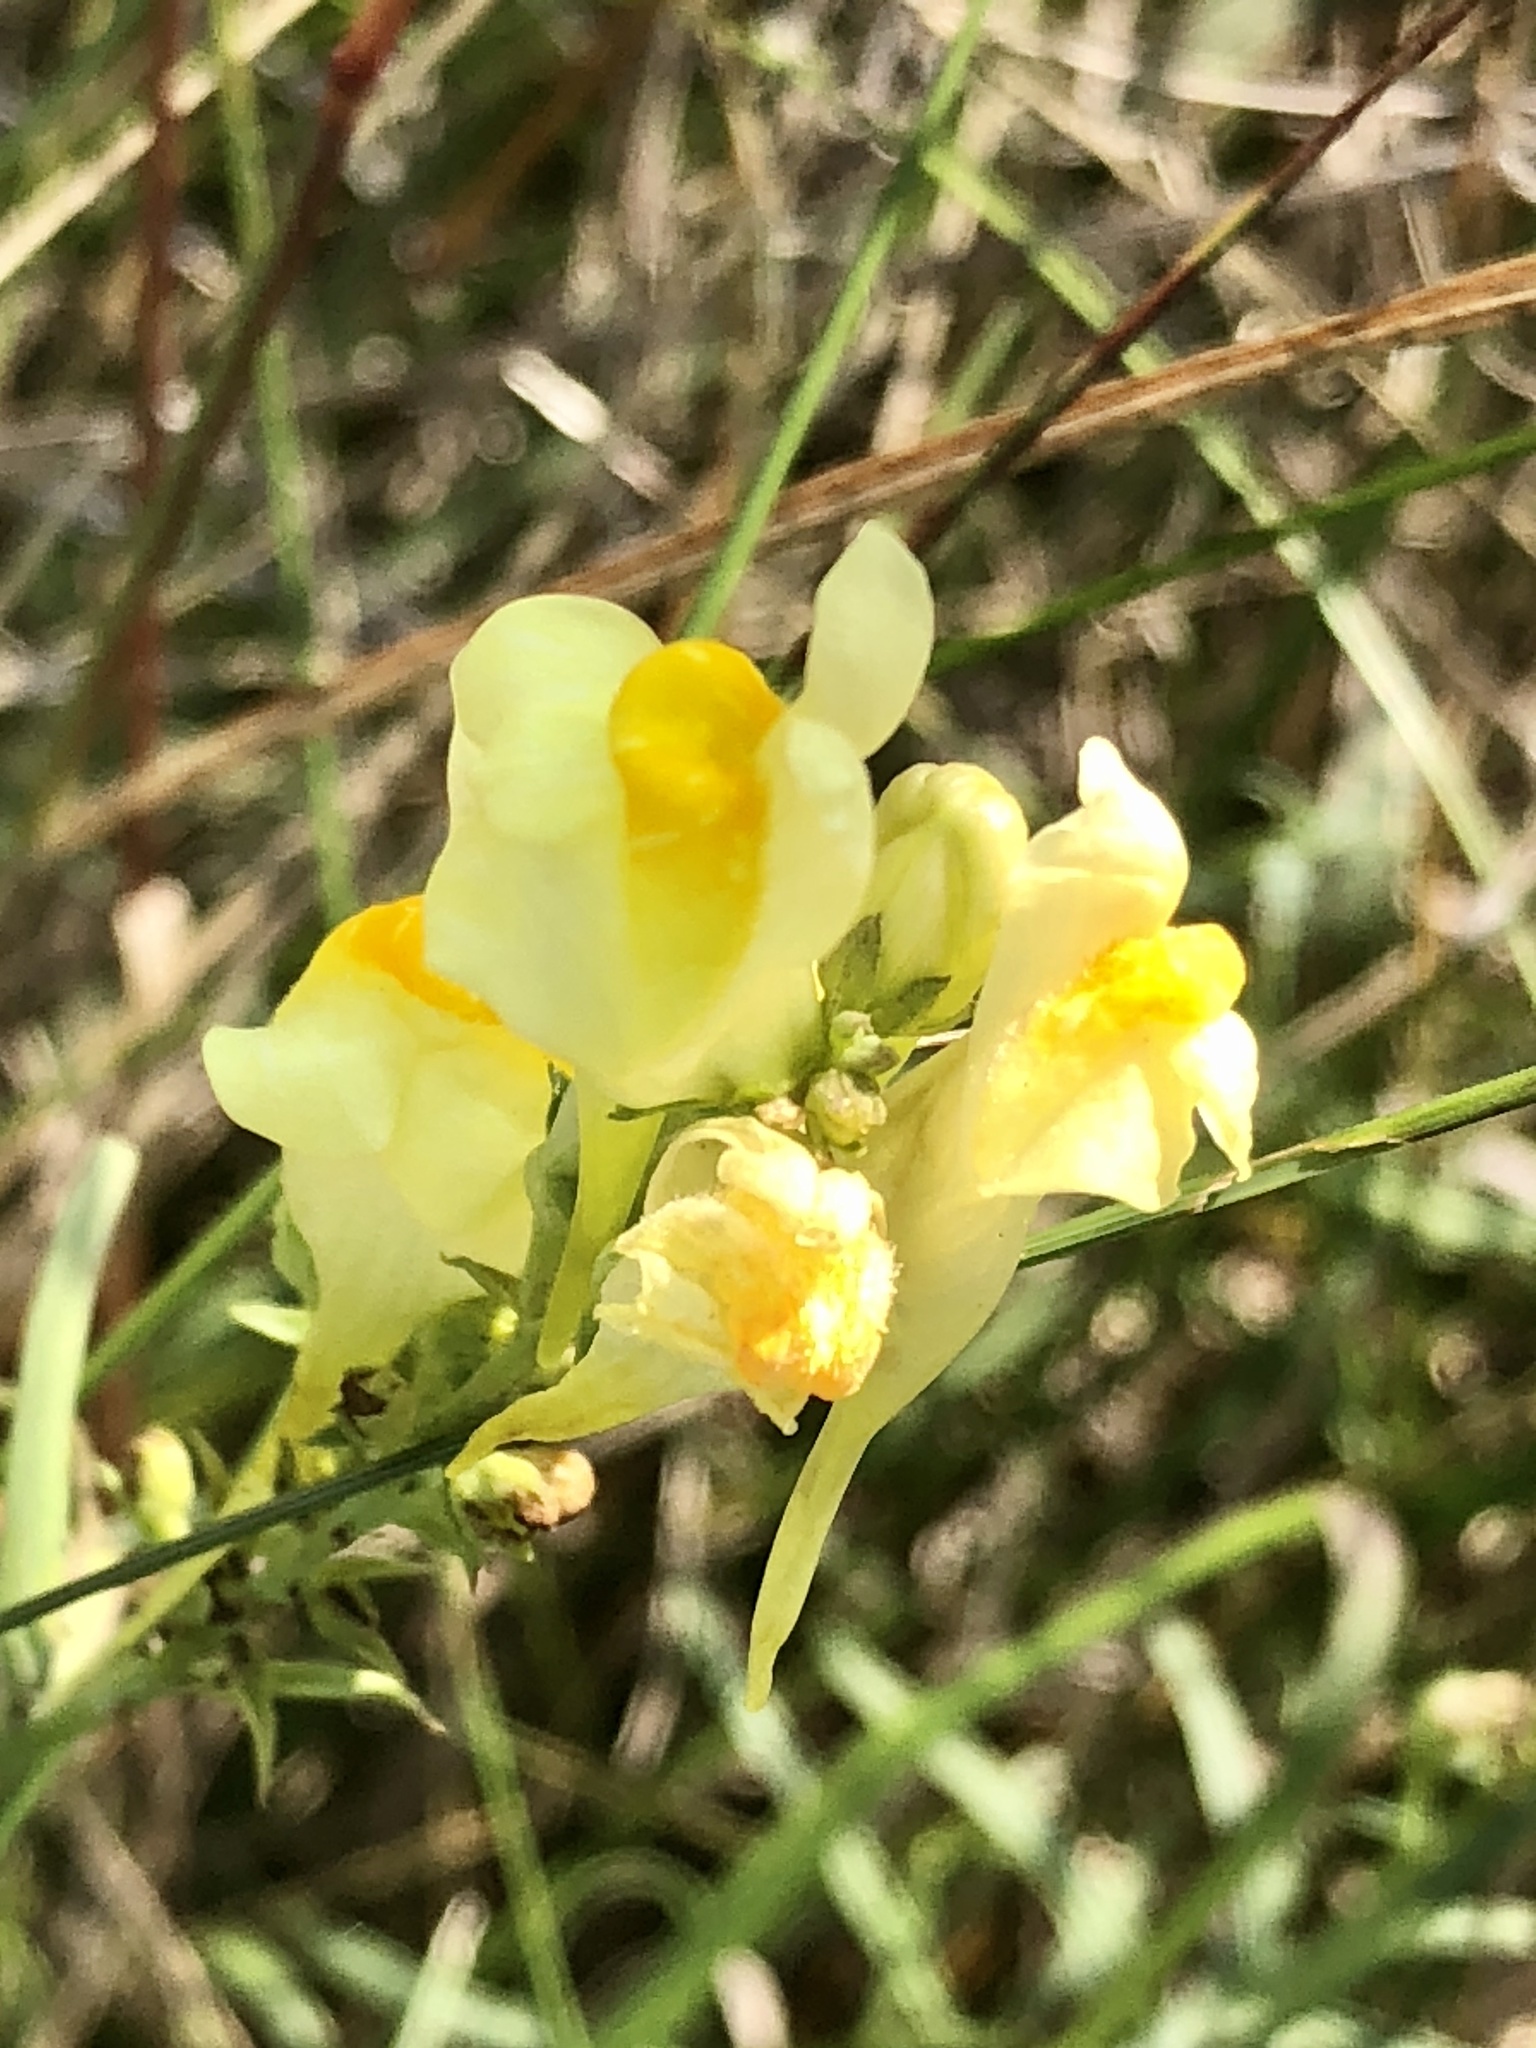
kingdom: Plantae
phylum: Tracheophyta
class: Magnoliopsida
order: Lamiales
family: Plantaginaceae
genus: Linaria
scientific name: Linaria vulgaris
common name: Butter and eggs
